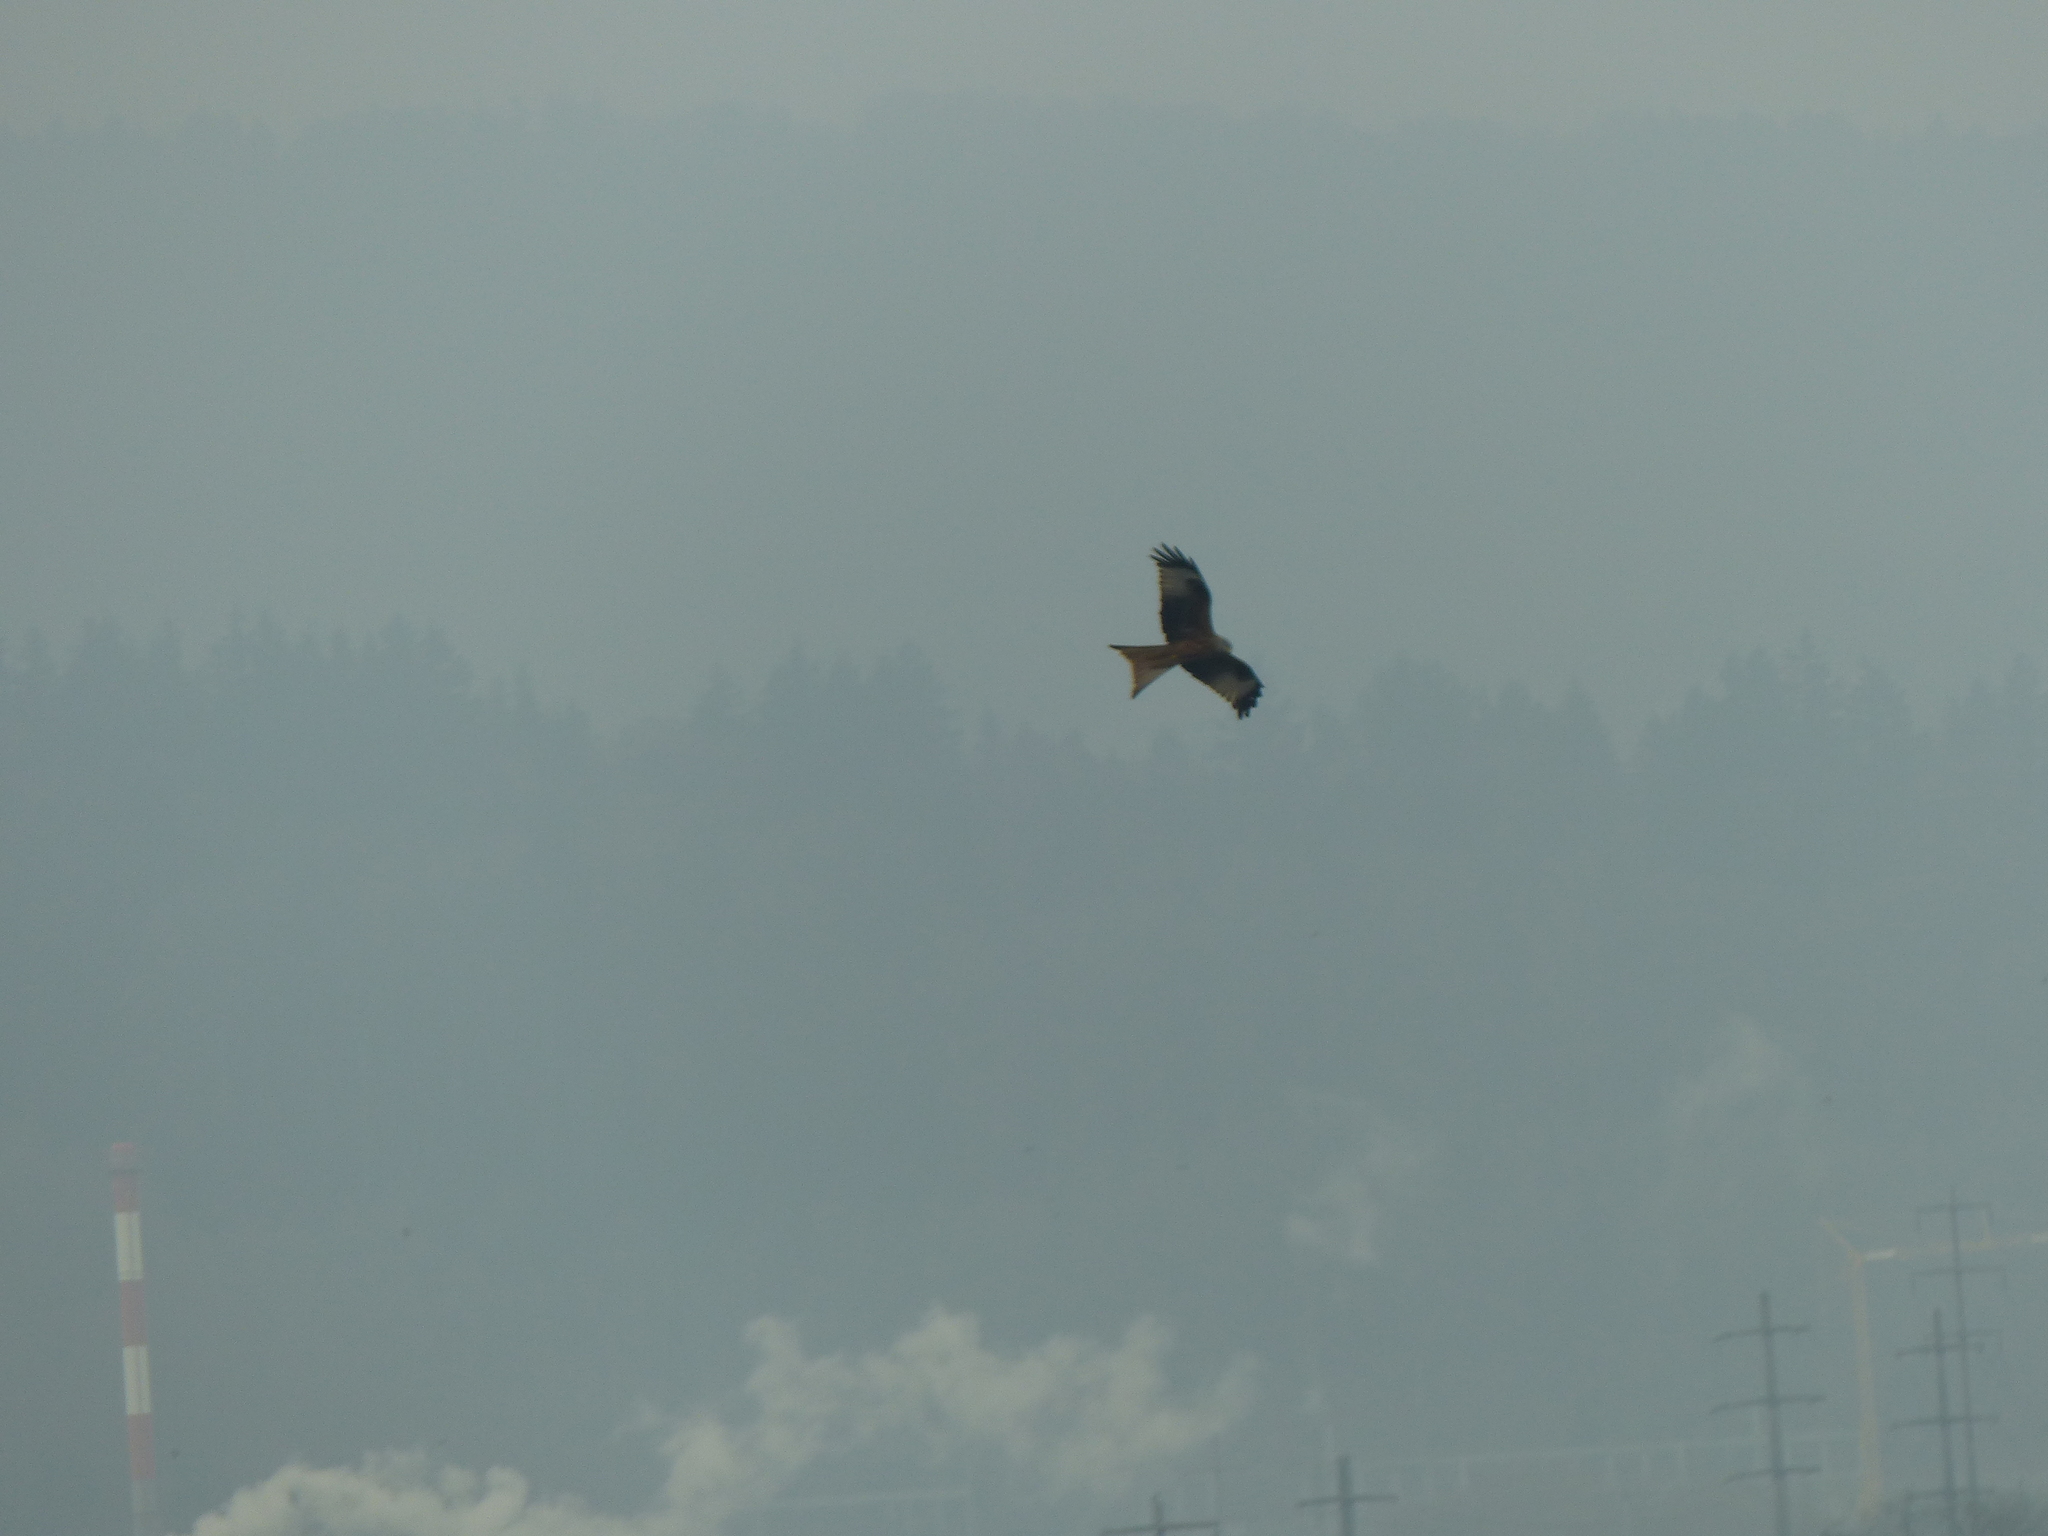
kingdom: Animalia
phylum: Chordata
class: Aves
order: Accipitriformes
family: Accipitridae
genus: Milvus
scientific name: Milvus milvus
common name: Red kite
